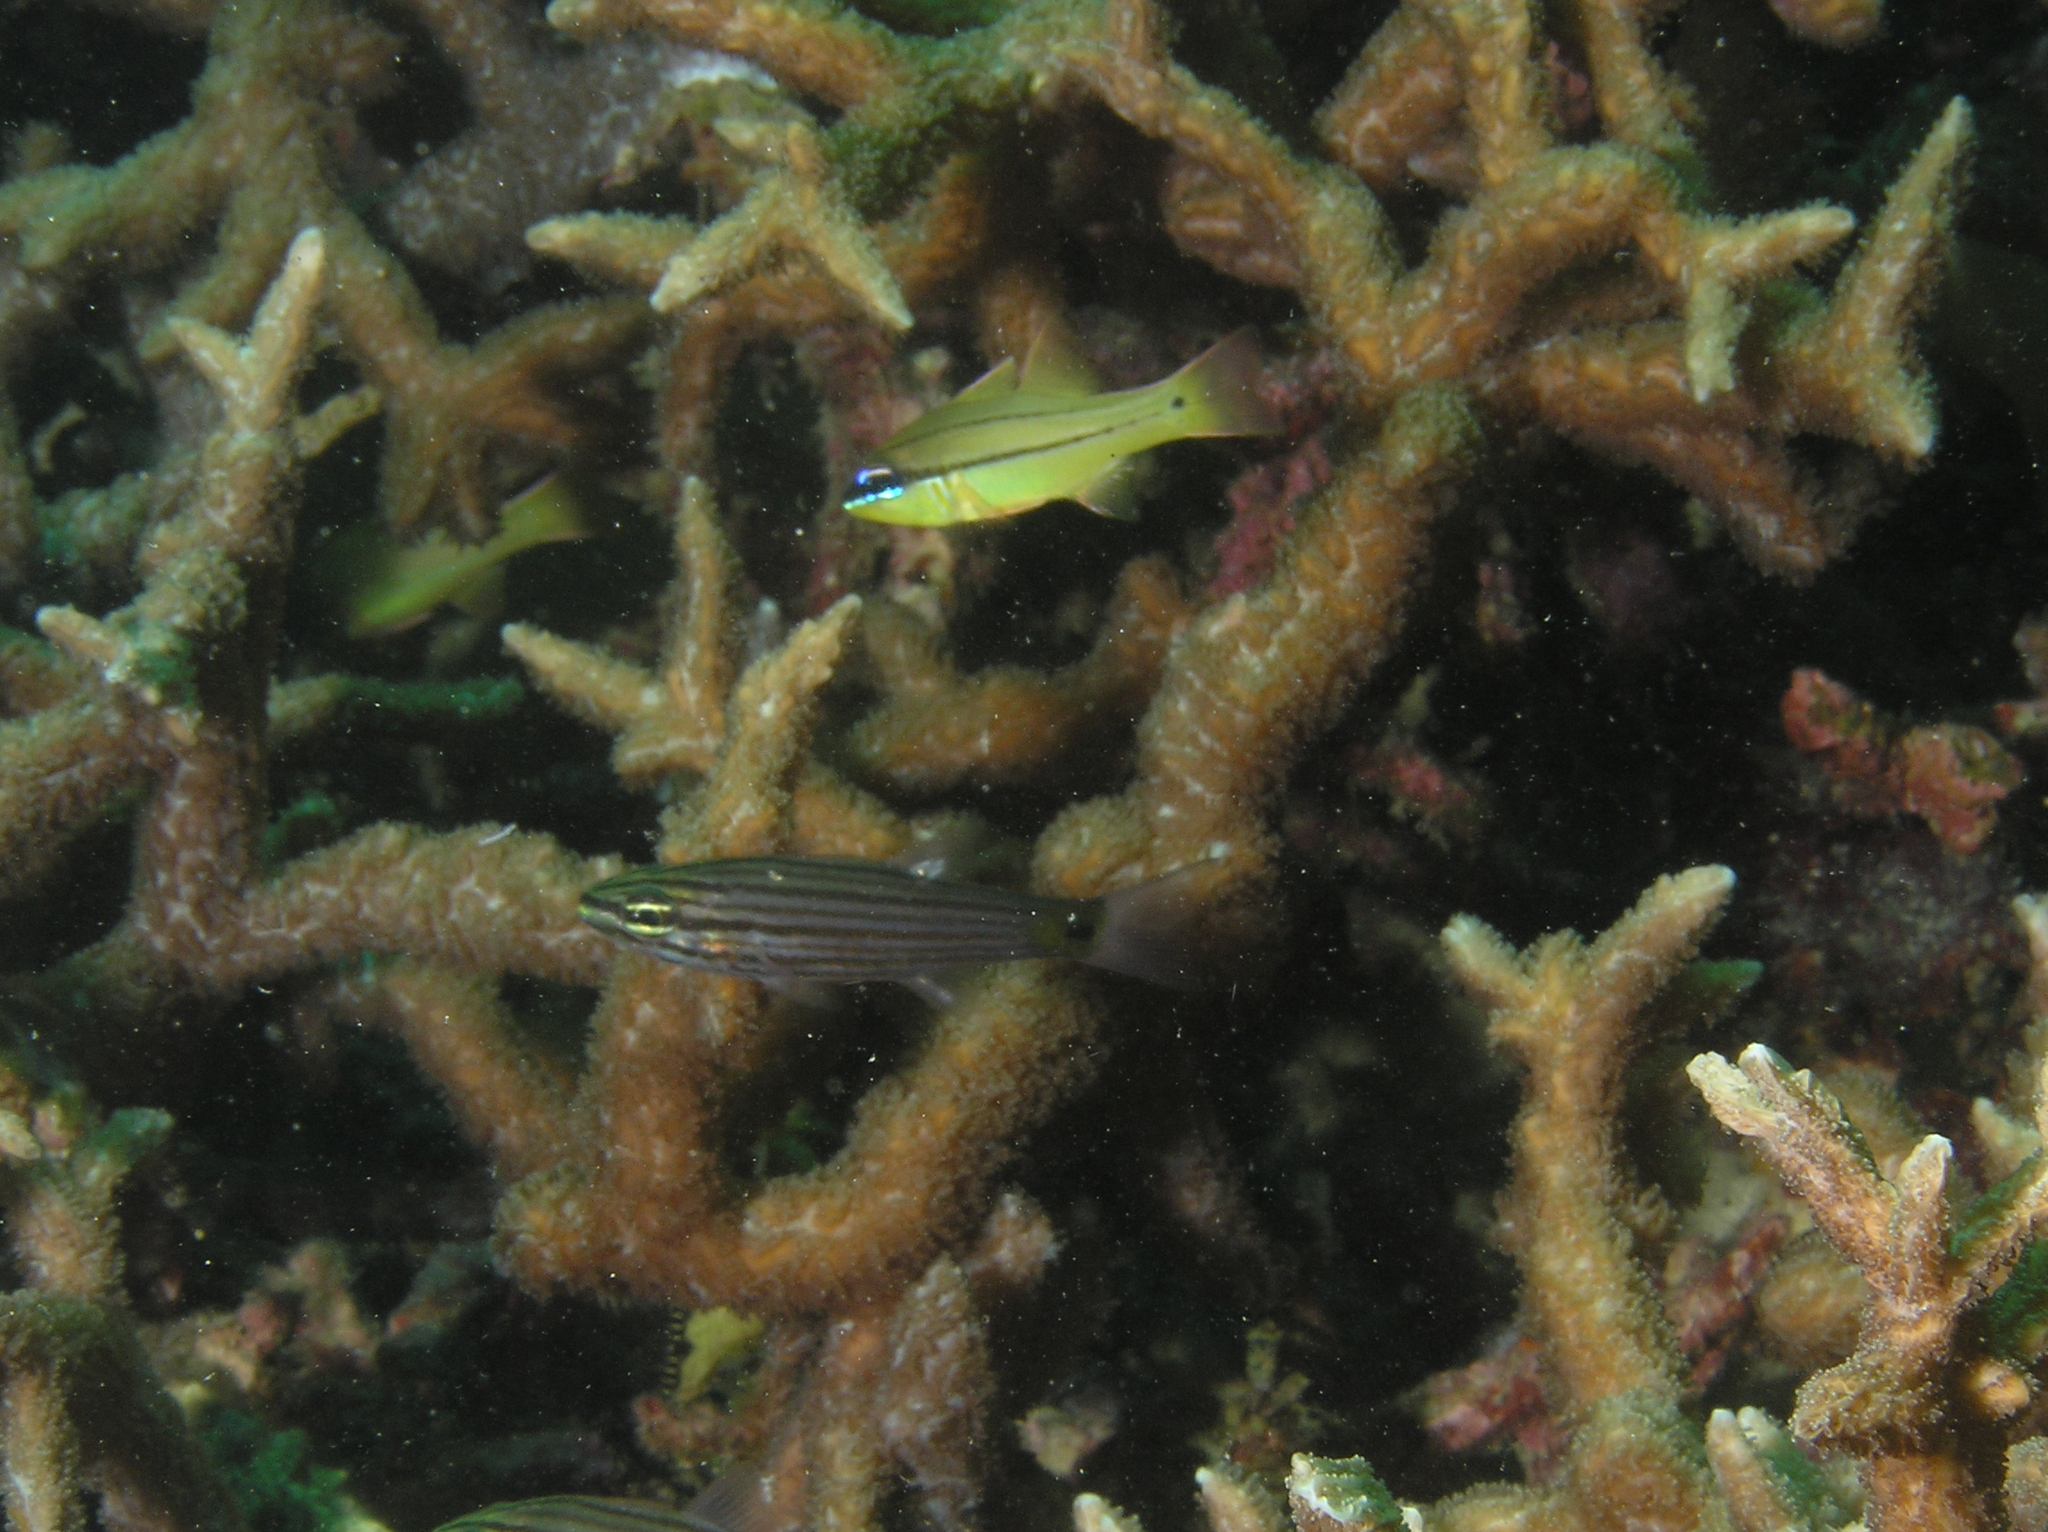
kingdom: Animalia
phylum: Chordata
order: Perciformes
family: Apogonidae
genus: Ostorhinchus
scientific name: Ostorhinchus sealei
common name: Seale's cardinalfish
